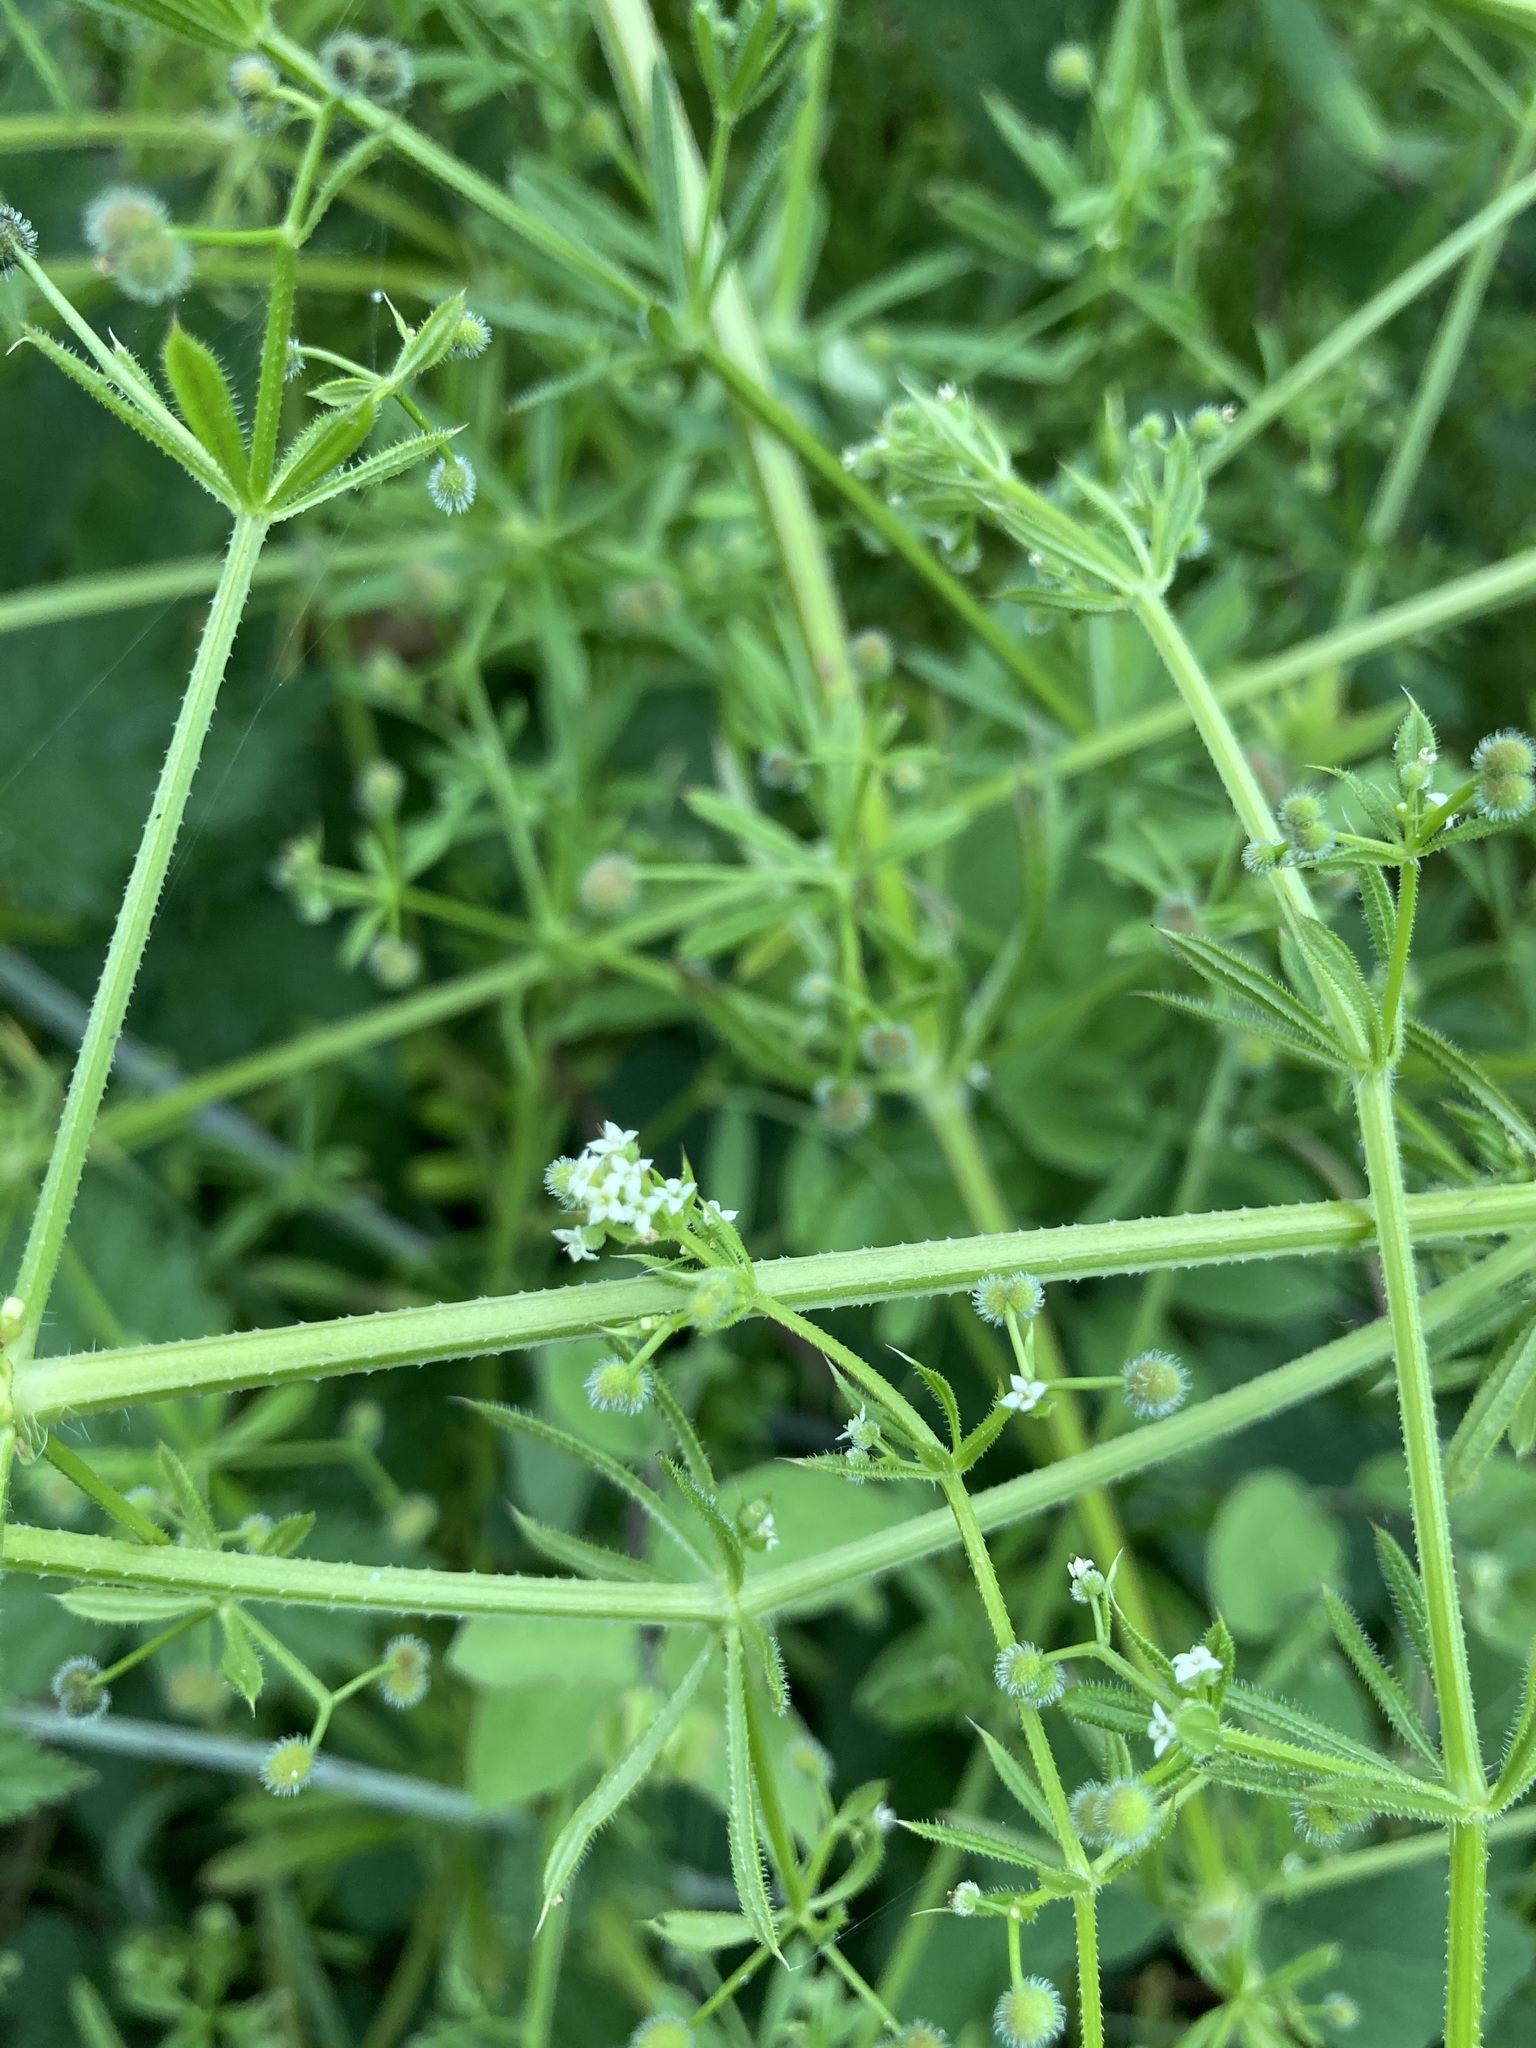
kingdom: Plantae
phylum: Tracheophyta
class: Magnoliopsida
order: Gentianales
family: Rubiaceae
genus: Galium
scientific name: Galium aparine
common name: Cleavers
